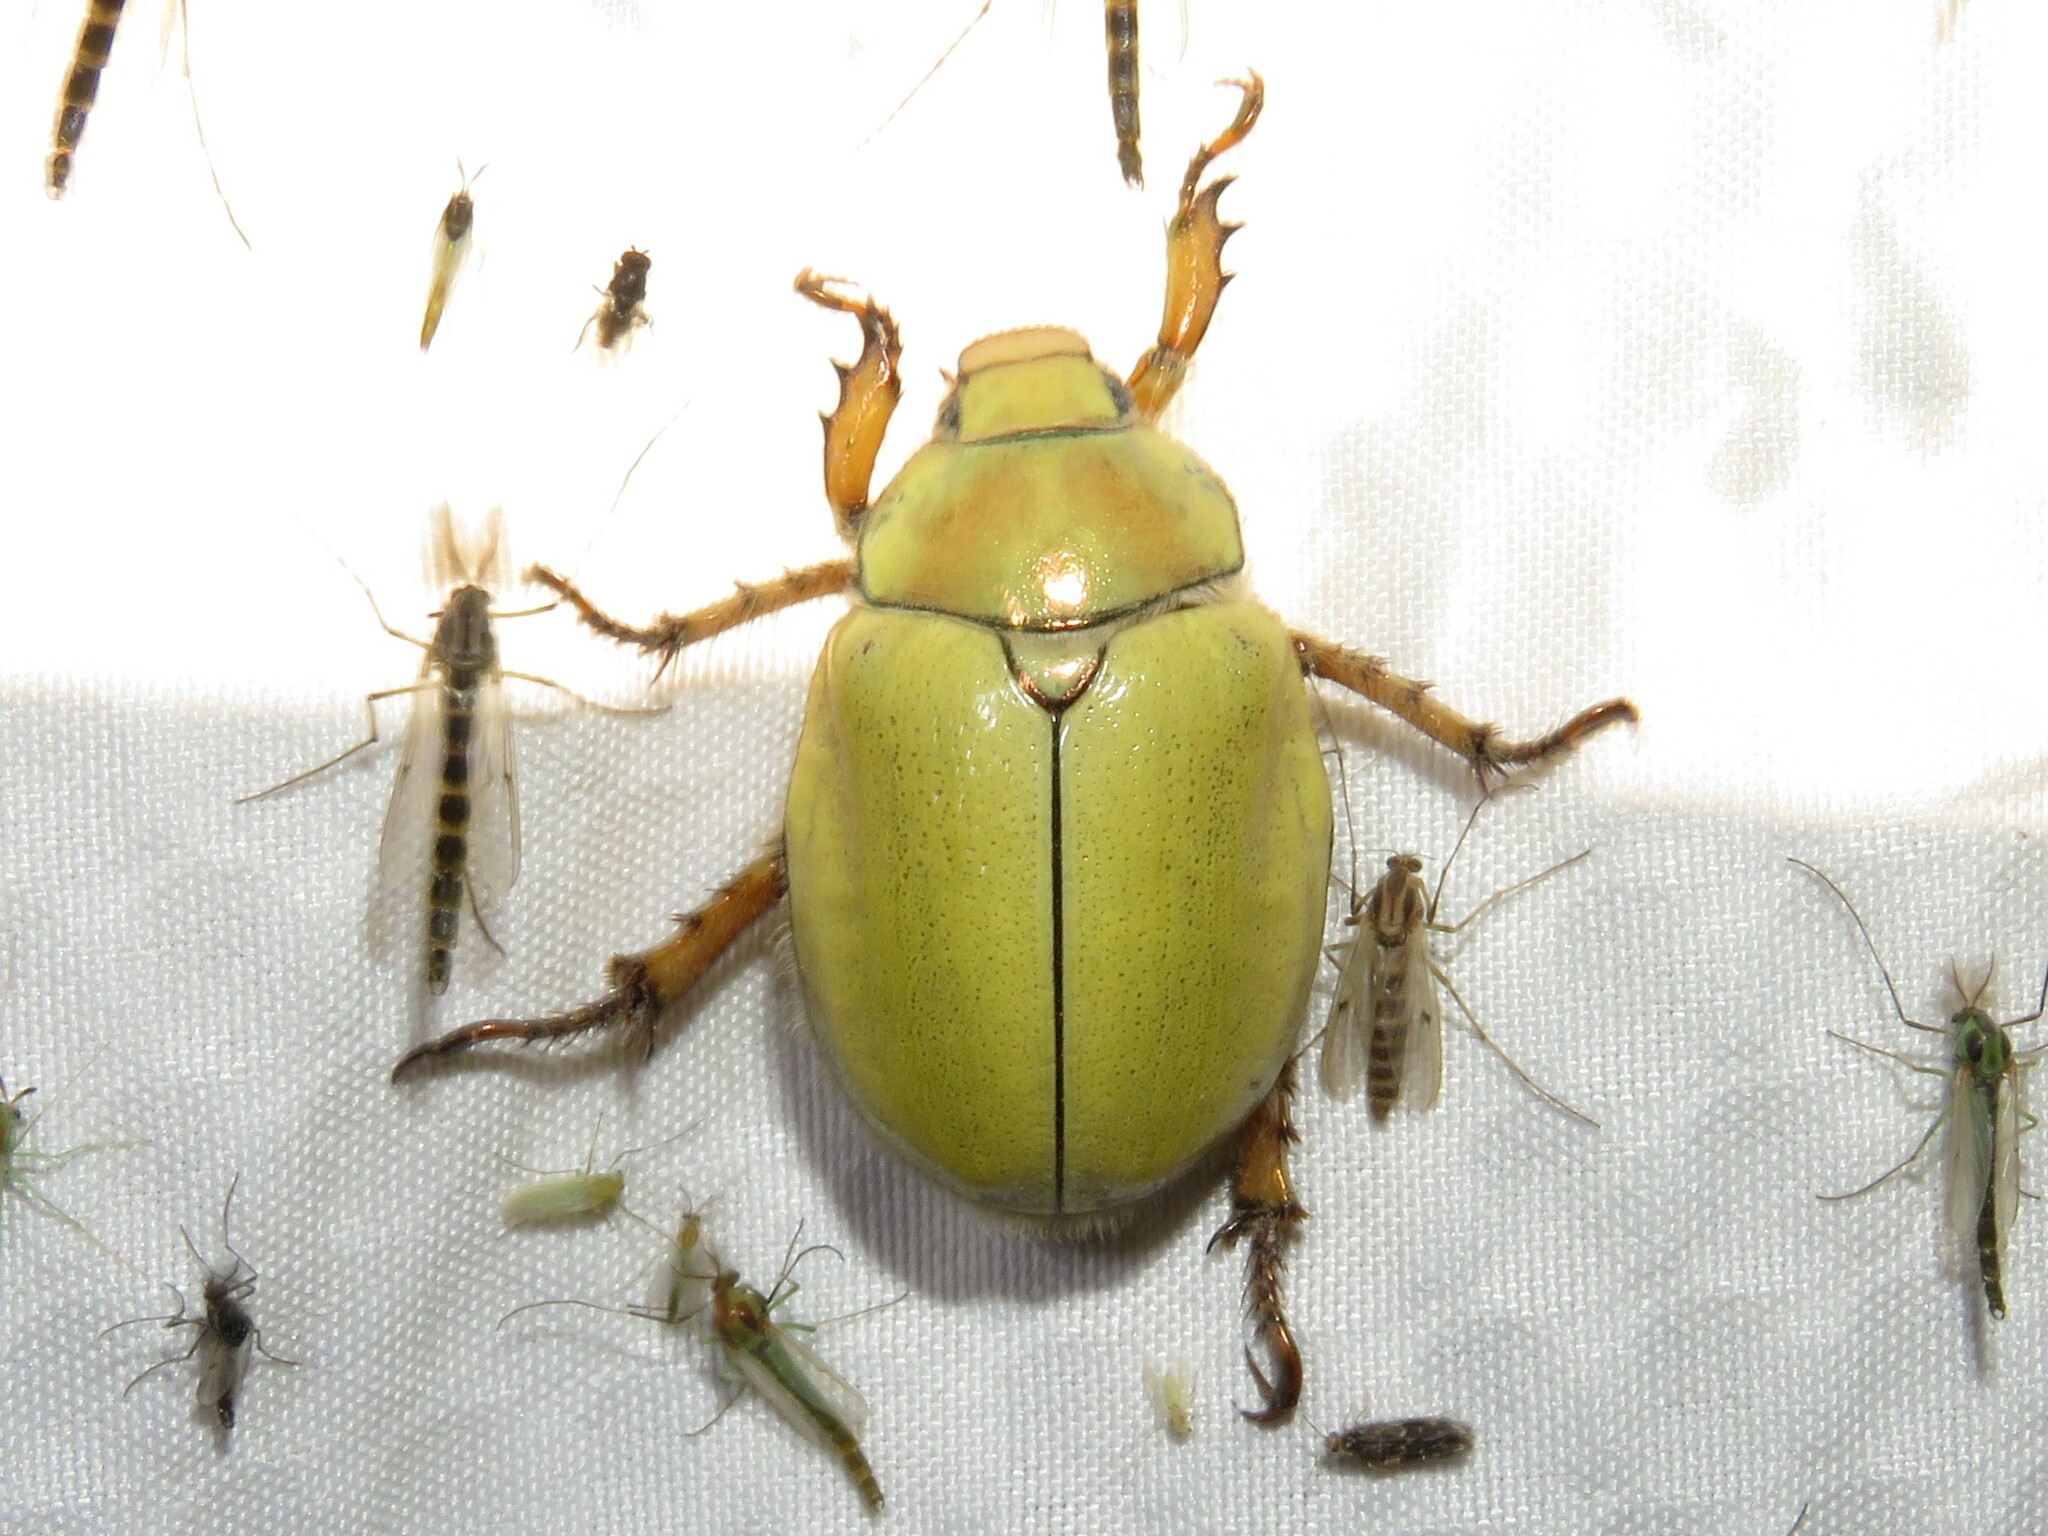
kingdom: Animalia
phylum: Arthropoda
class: Insecta
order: Coleoptera
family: Scarabaeidae
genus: Cotalpa
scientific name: Cotalpa lanigera
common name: Goldsmith beetle
